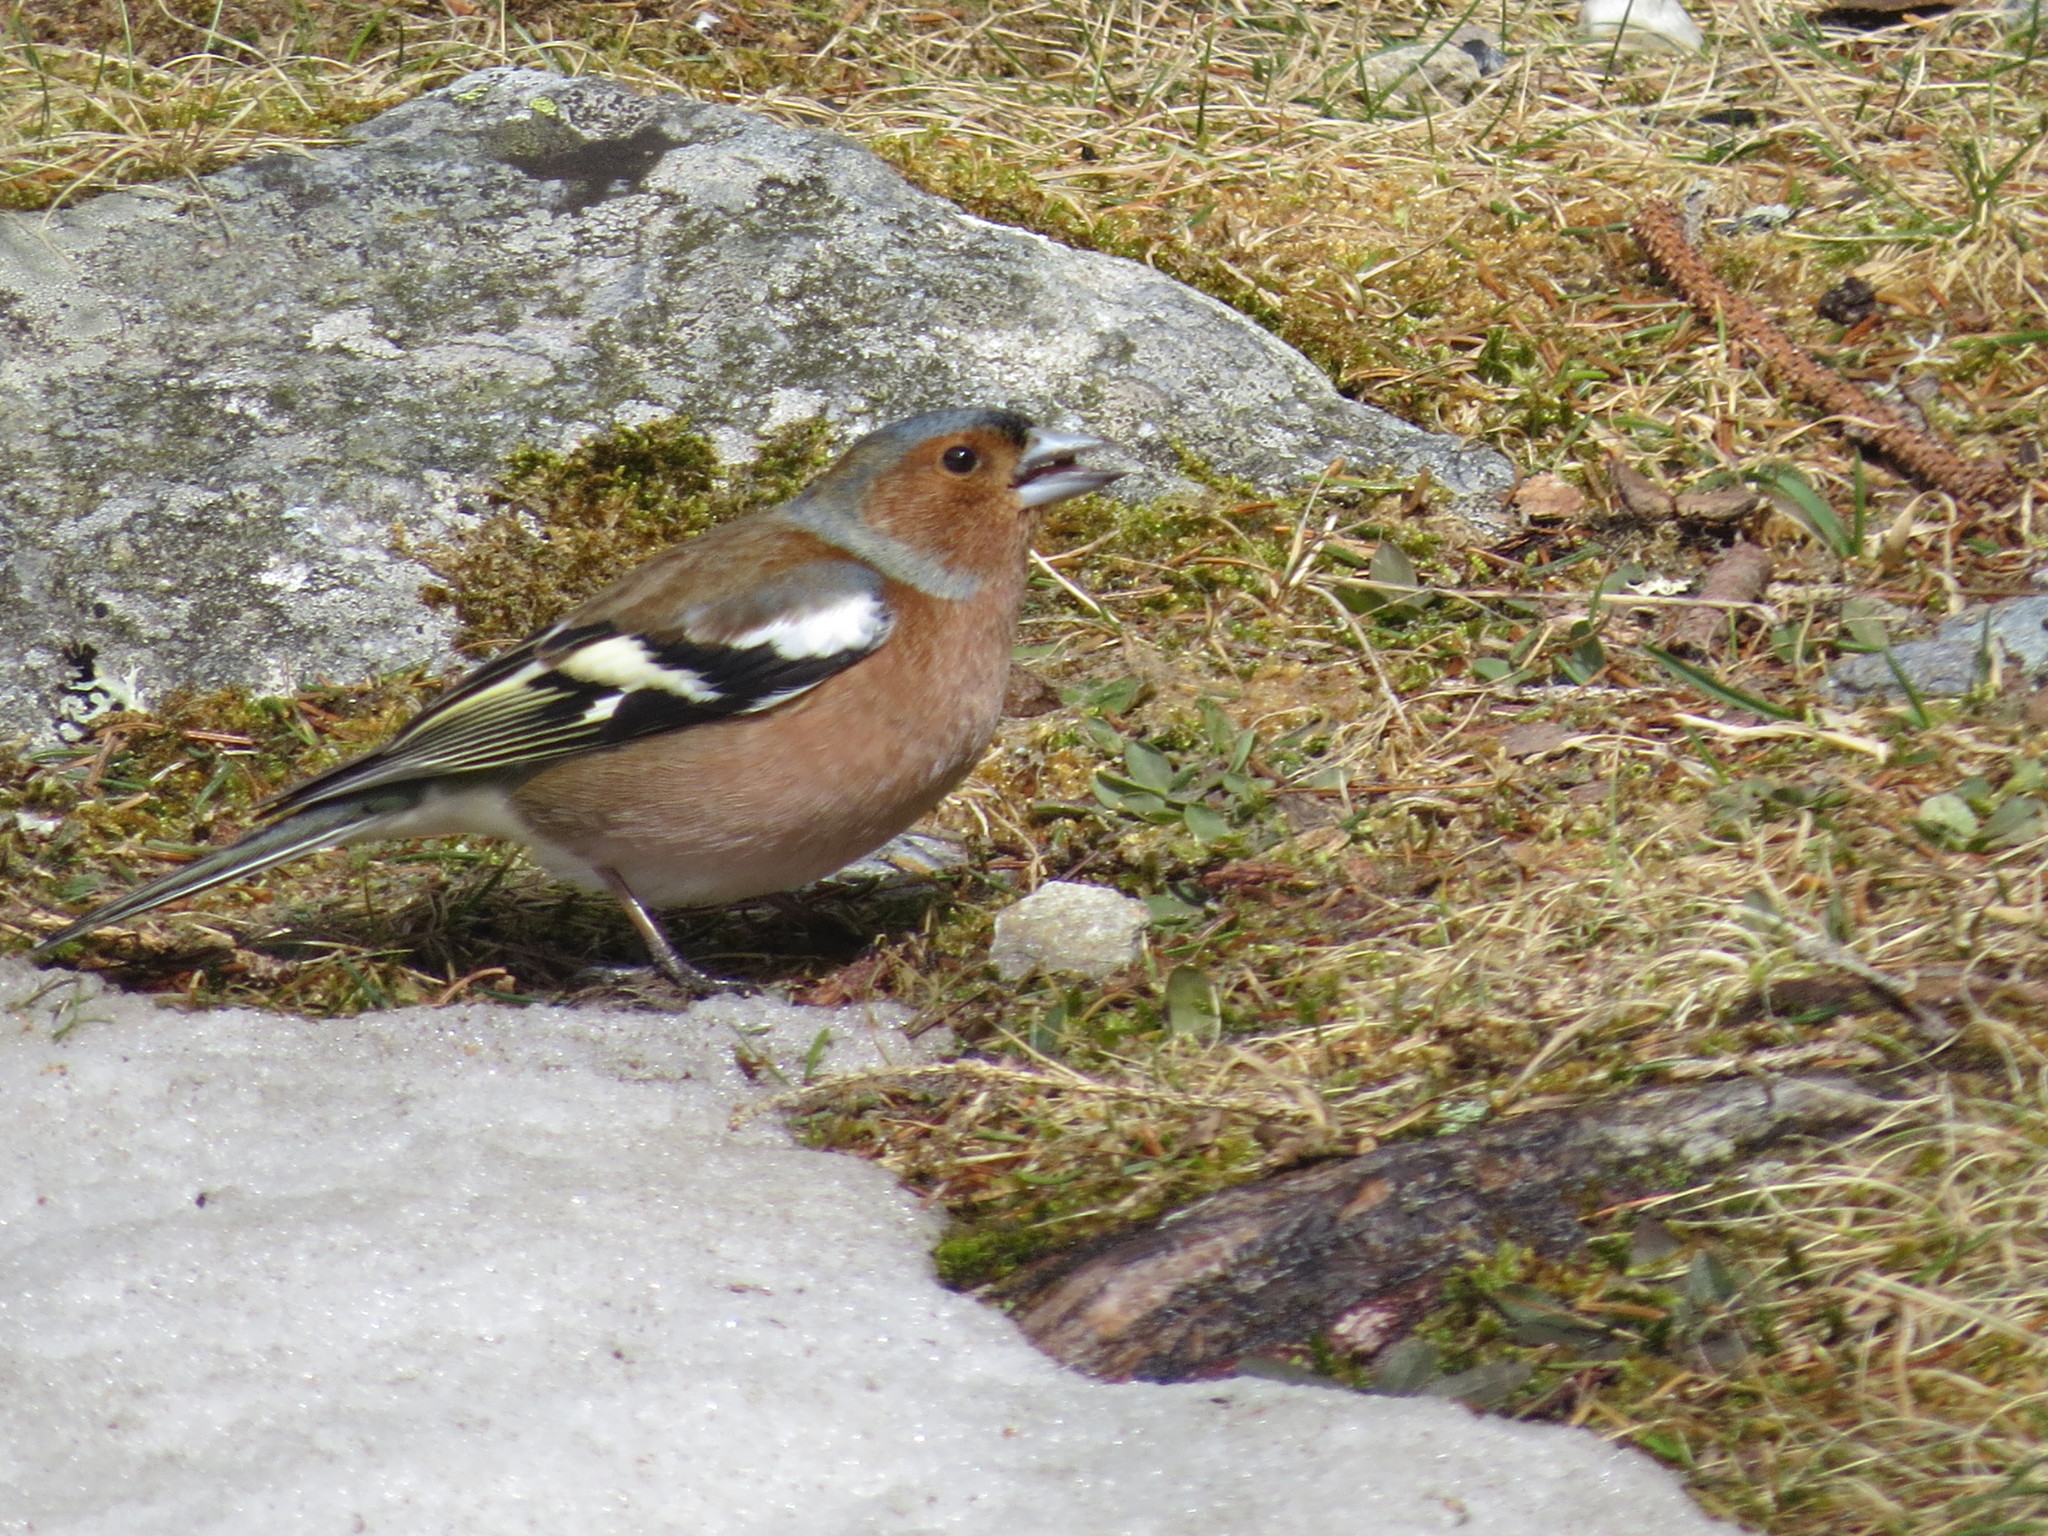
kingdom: Animalia
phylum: Chordata
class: Aves
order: Passeriformes
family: Fringillidae
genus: Fringilla
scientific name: Fringilla coelebs
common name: Common chaffinch
